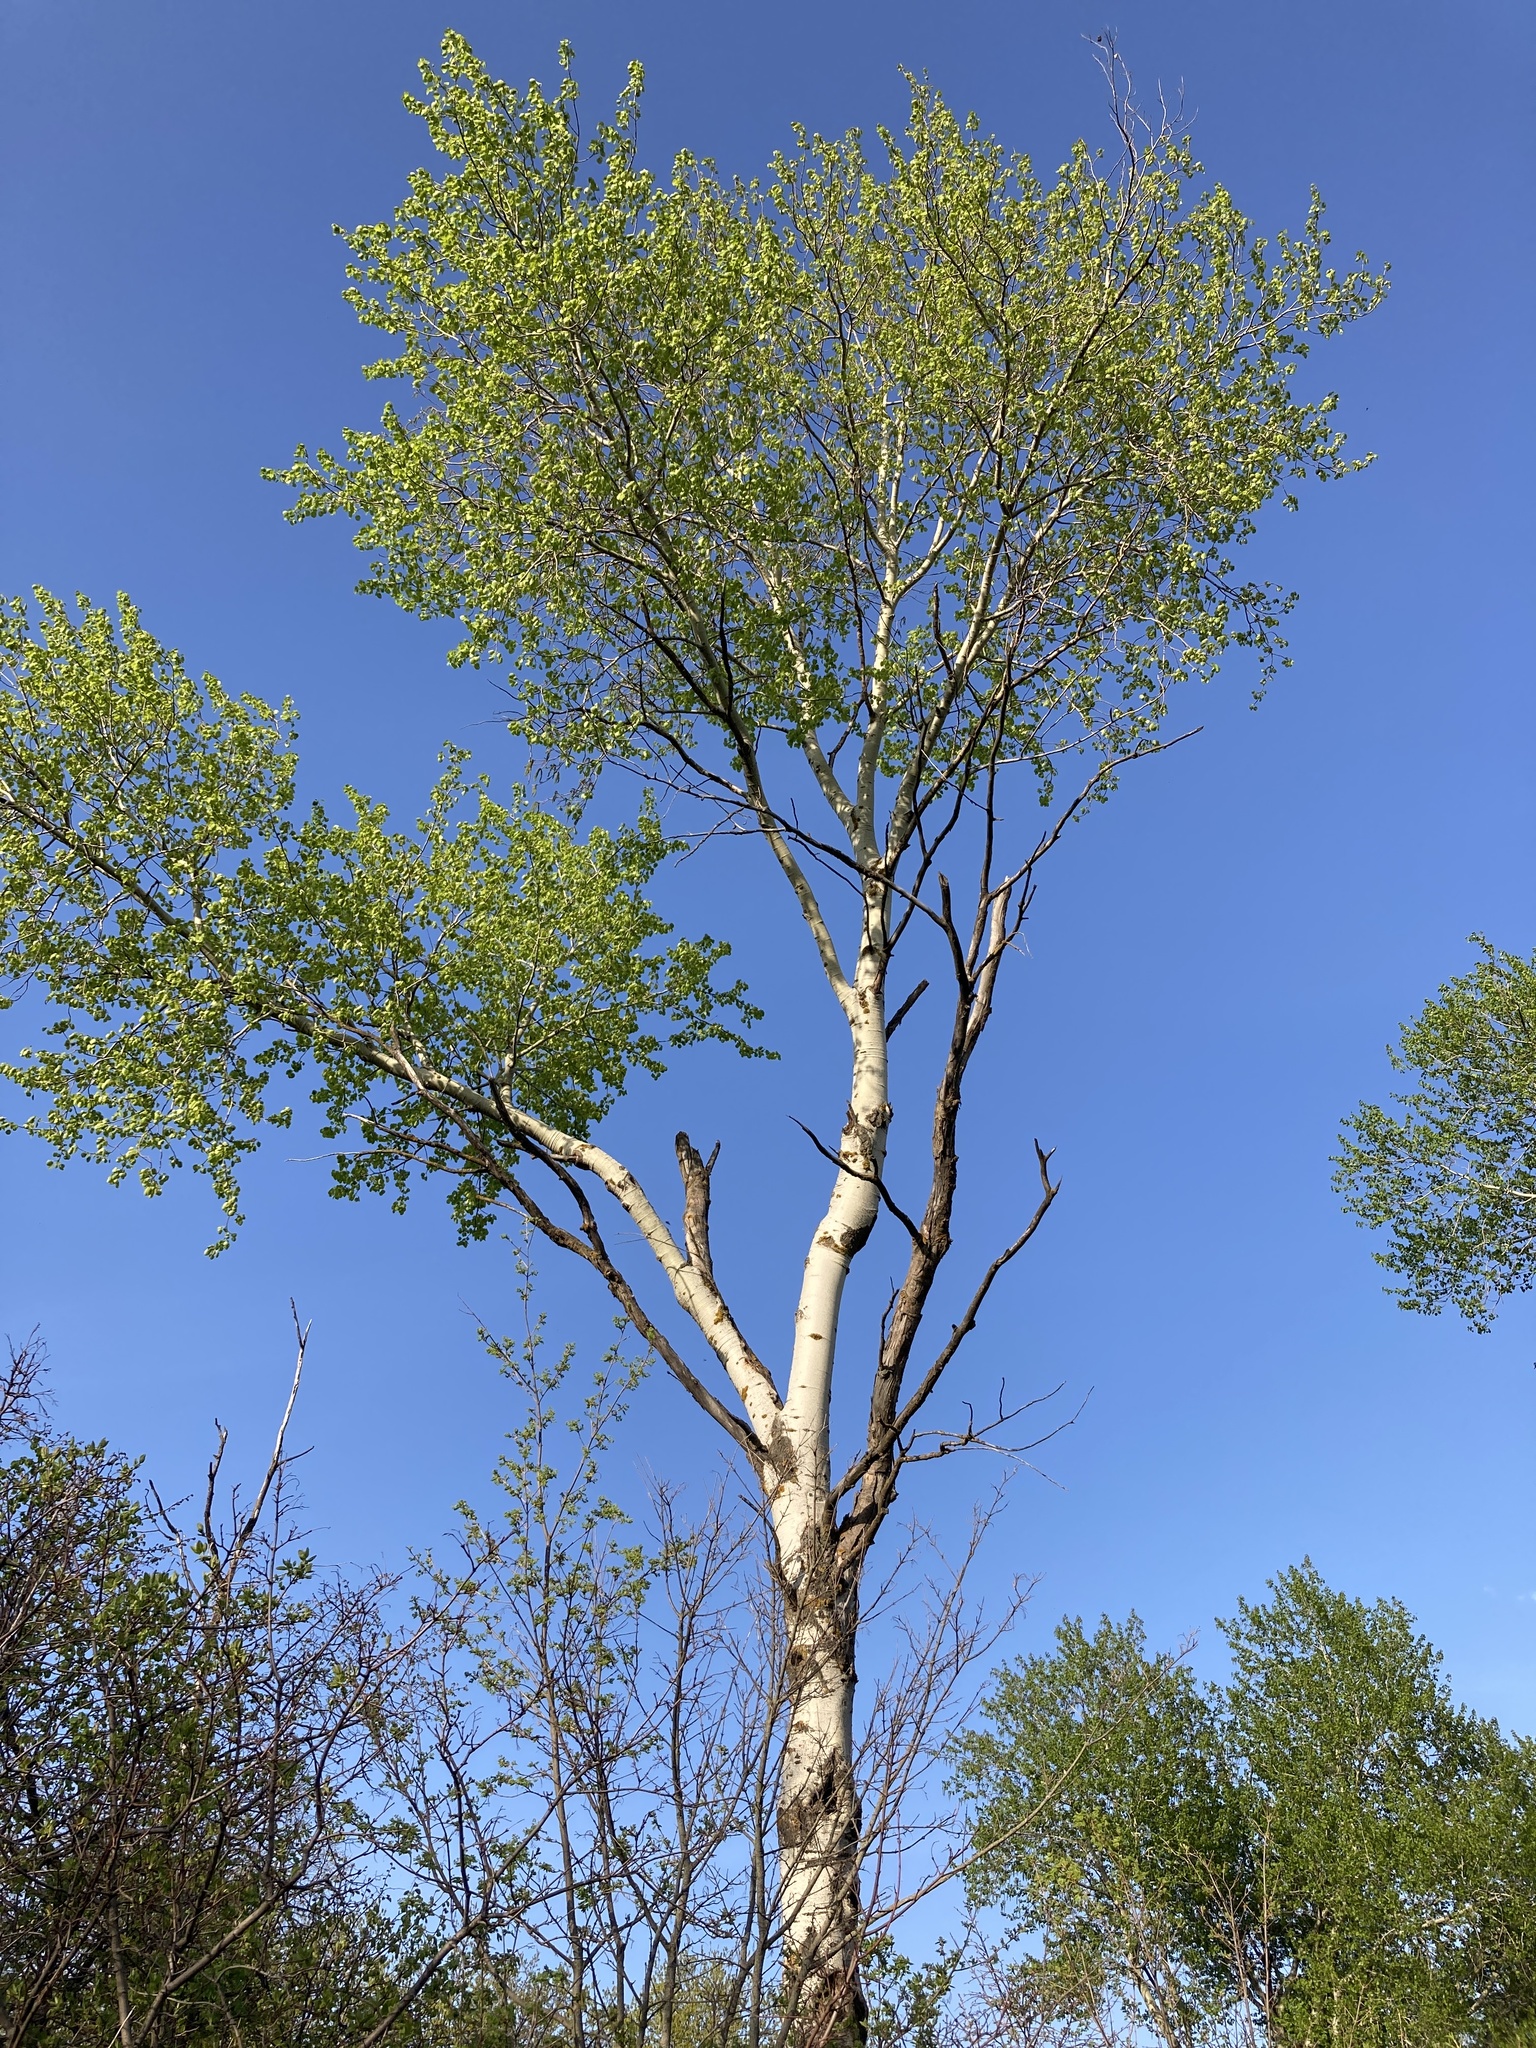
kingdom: Plantae
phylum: Tracheophyta
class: Magnoliopsida
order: Malpighiales
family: Salicaceae
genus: Populus
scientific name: Populus tremula
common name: European aspen
